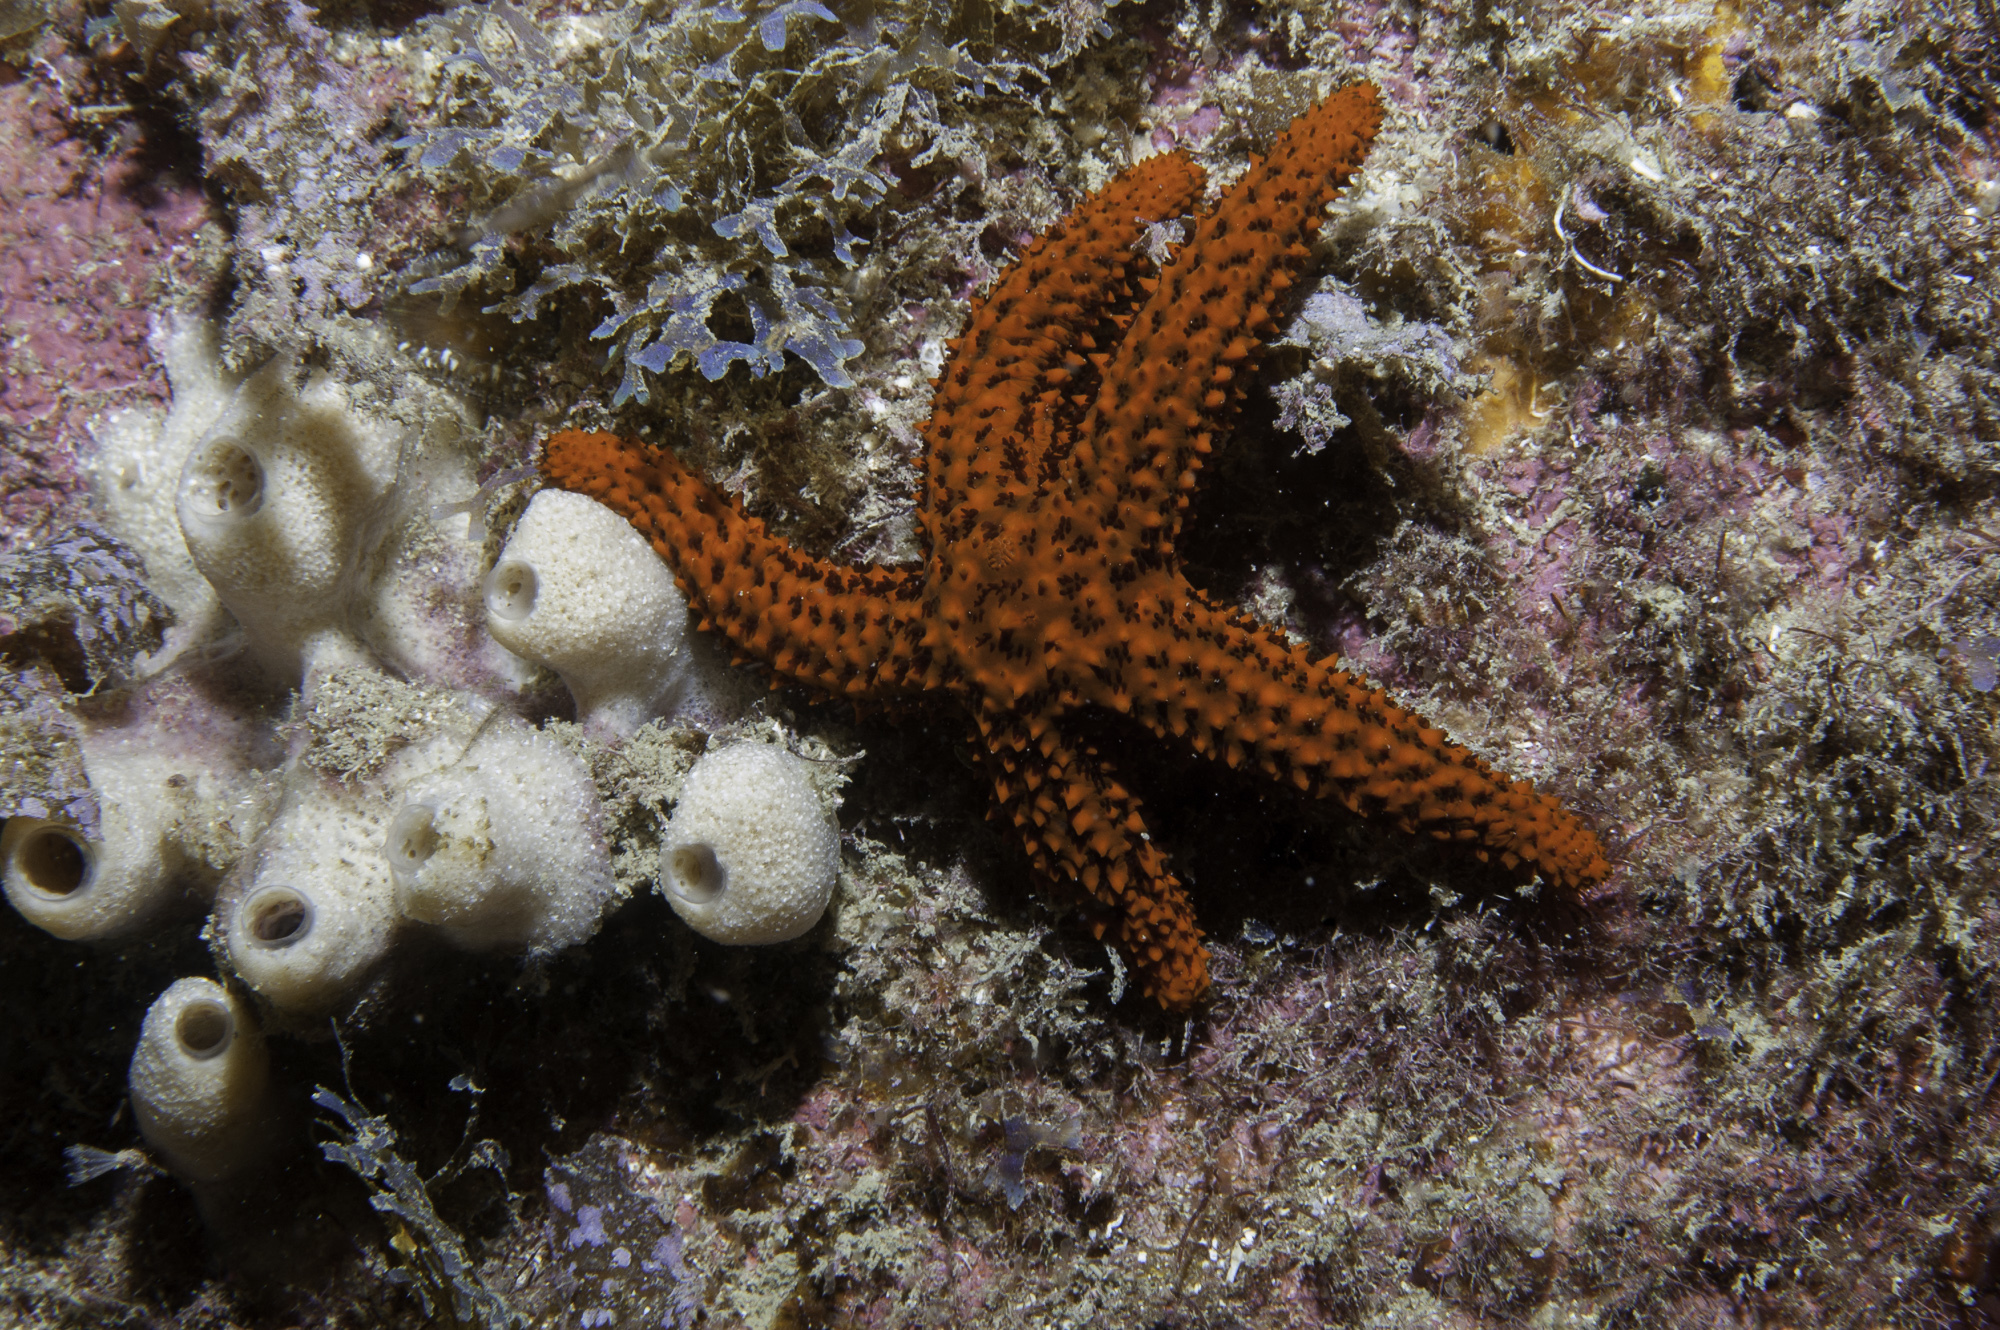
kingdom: Animalia
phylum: Echinodermata
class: Asteroidea
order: Spinulosida
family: Echinasteridae
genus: Echinaster
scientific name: Echinaster brasiliensis
